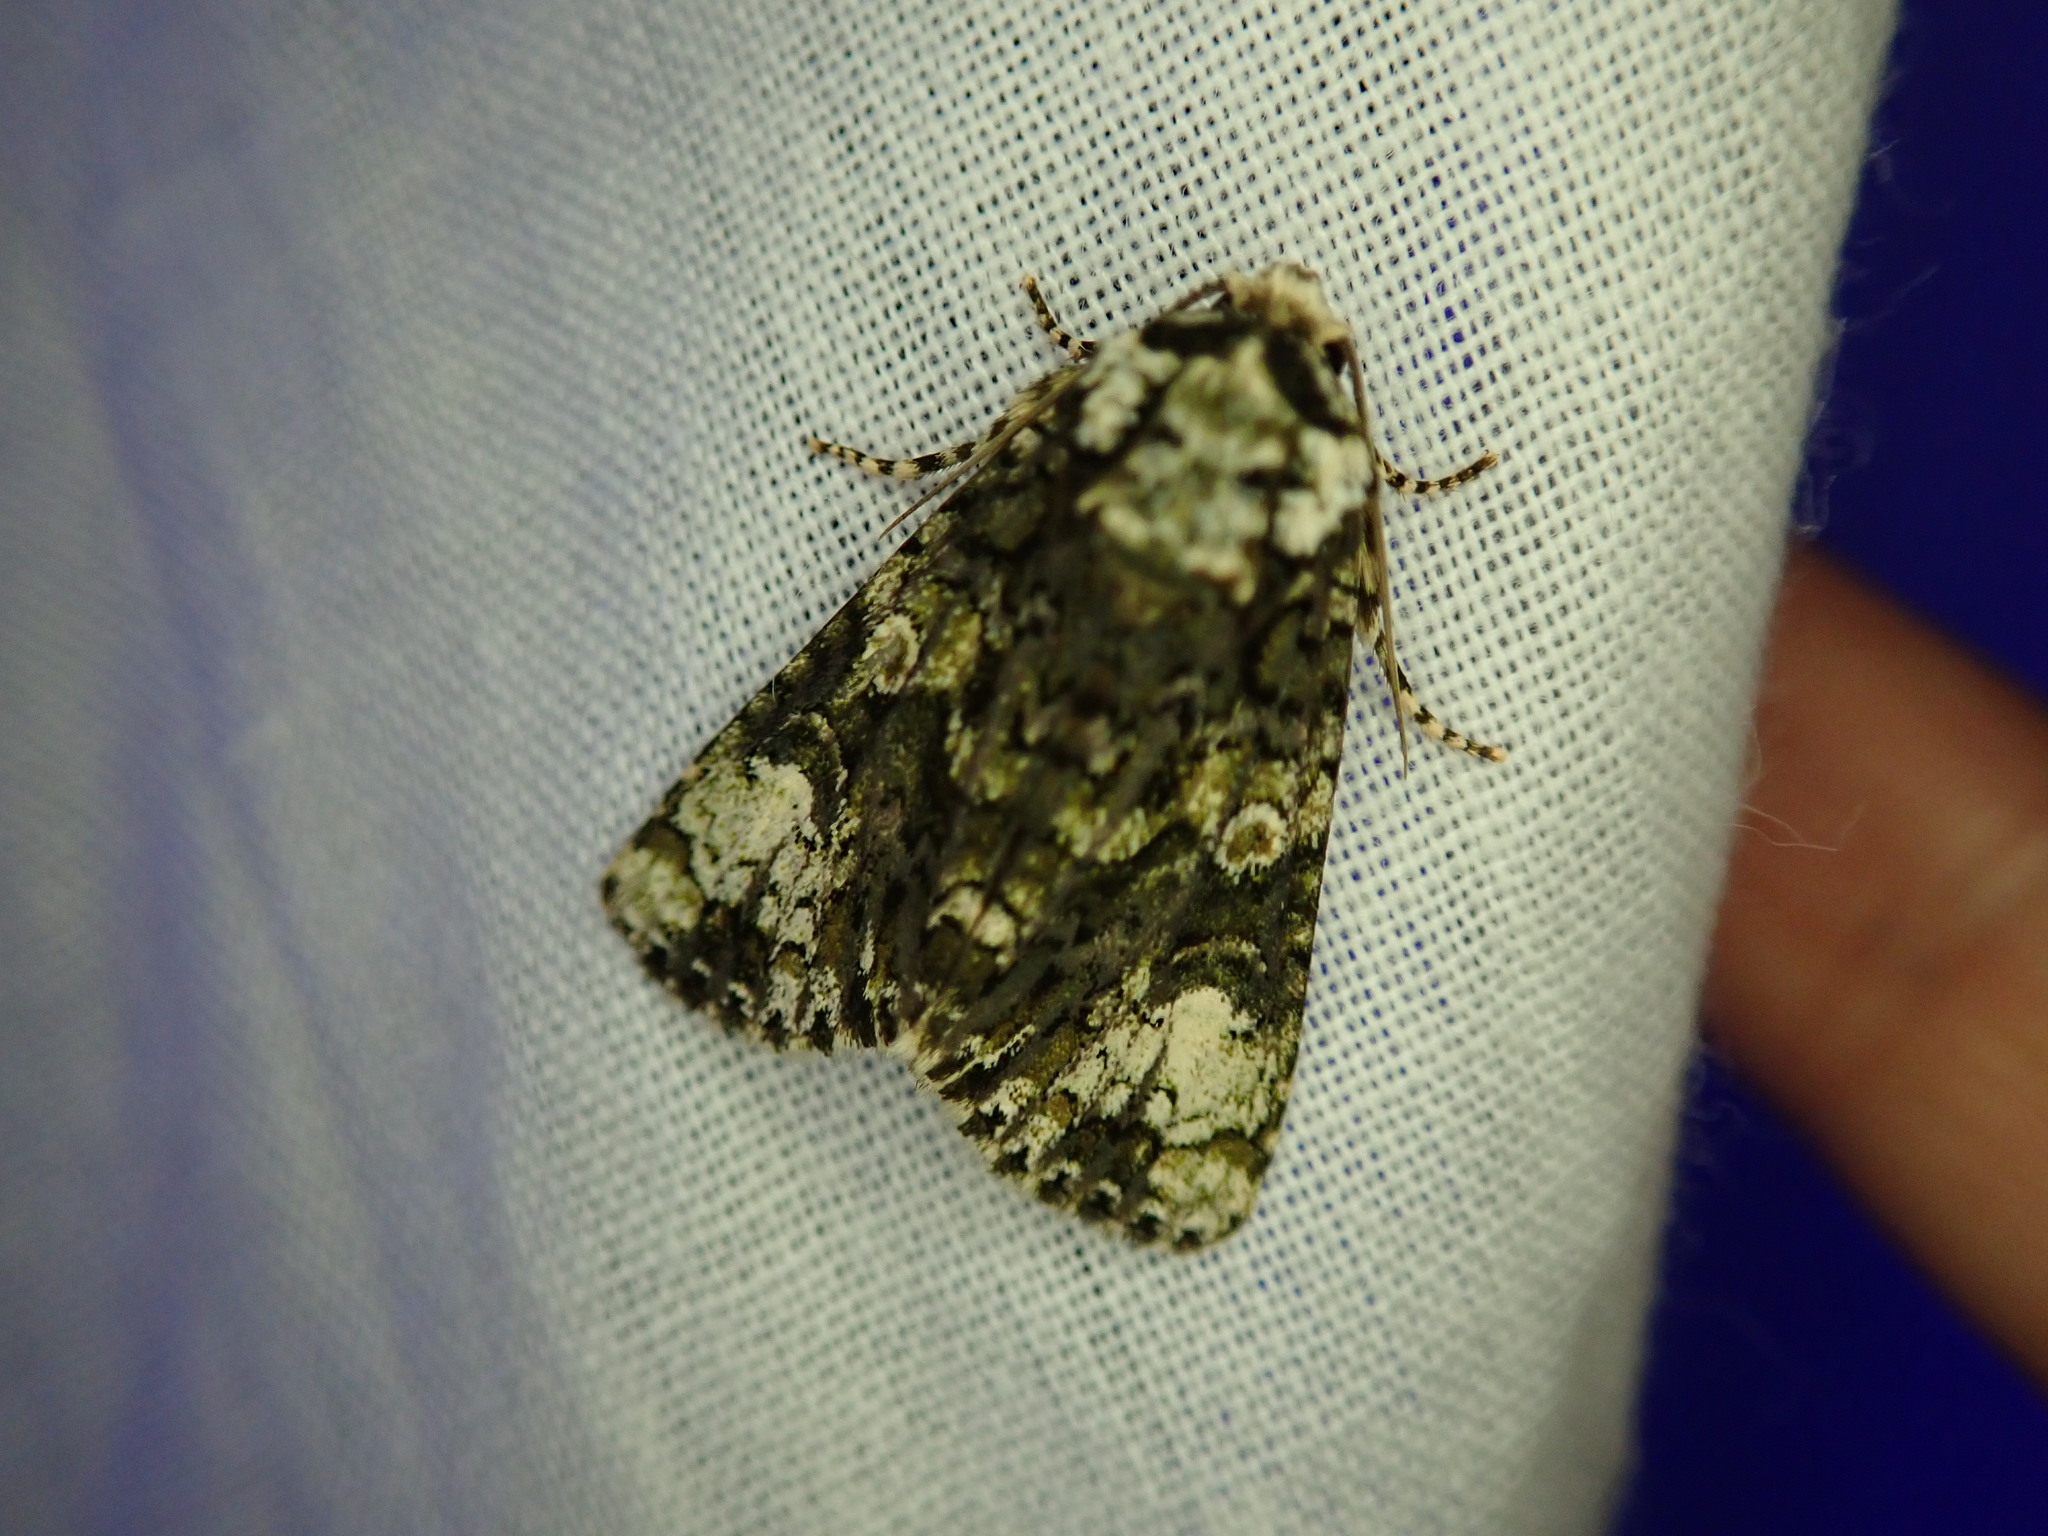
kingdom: Animalia
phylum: Arthropoda
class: Insecta
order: Lepidoptera
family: Noctuidae
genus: Craniophora
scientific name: Craniophora ligustri
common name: Coronet
